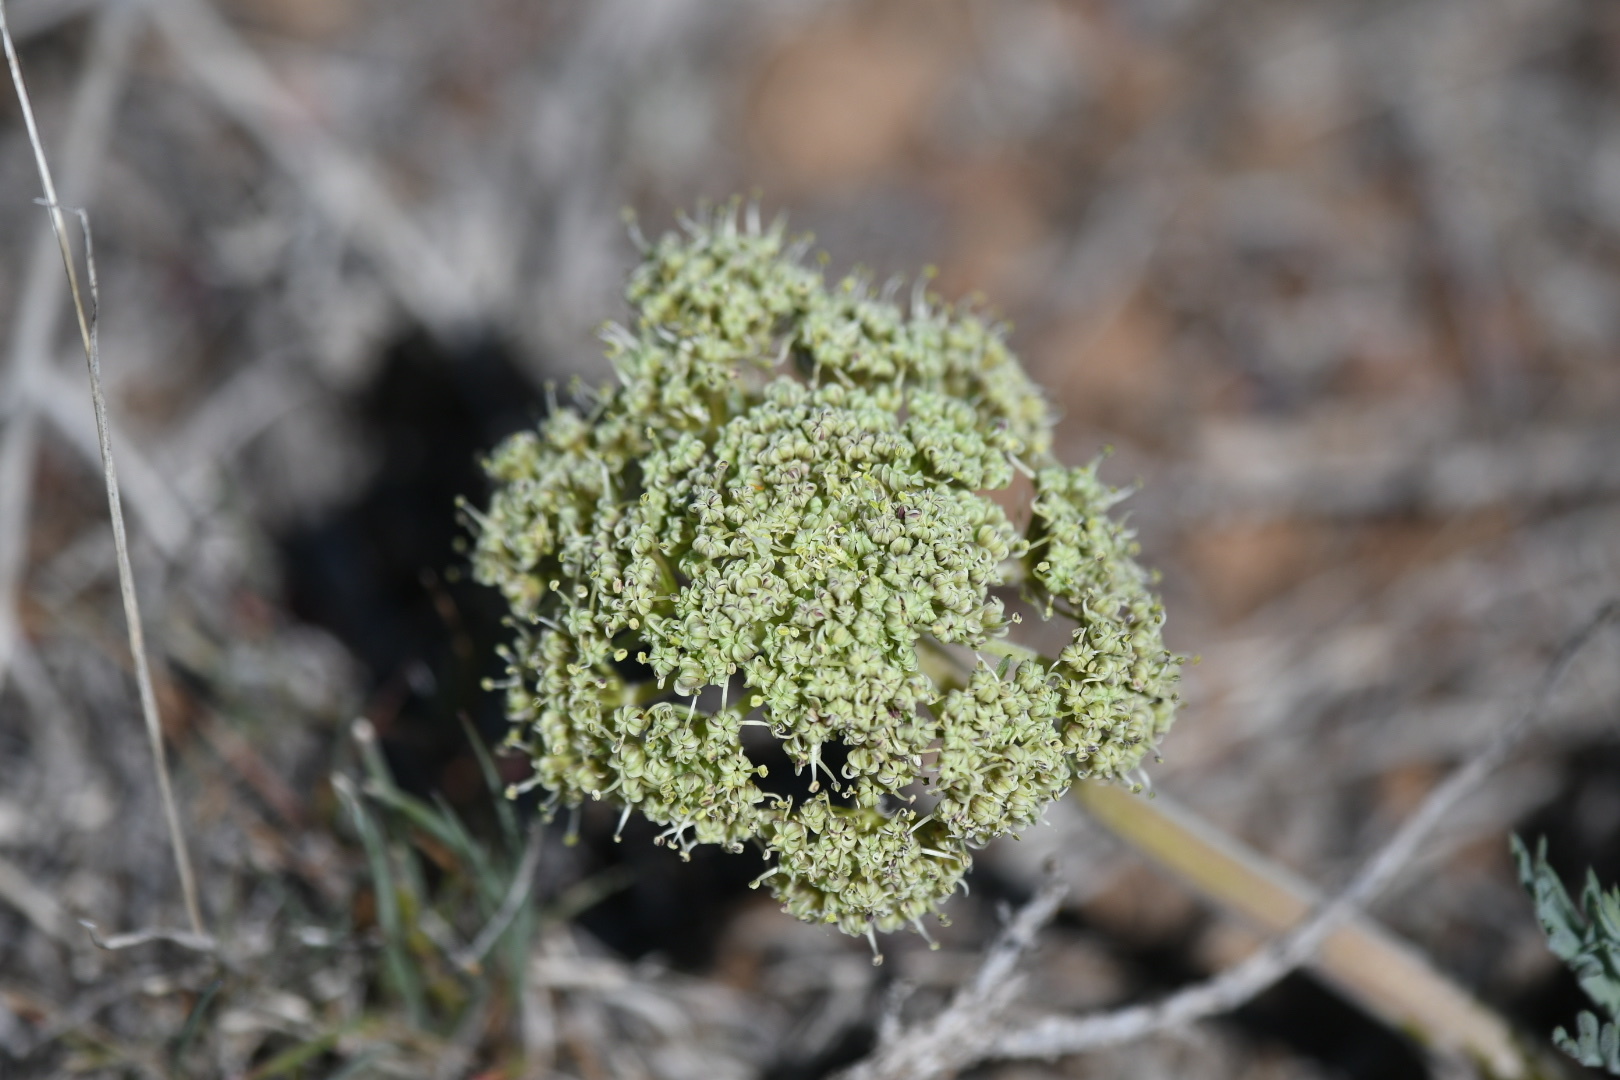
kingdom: Plantae
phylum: Tracheophyta
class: Magnoliopsida
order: Apiales
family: Apiaceae
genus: Lomatium
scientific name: Lomatium macrocarpum
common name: Big-seed biscuitroot
